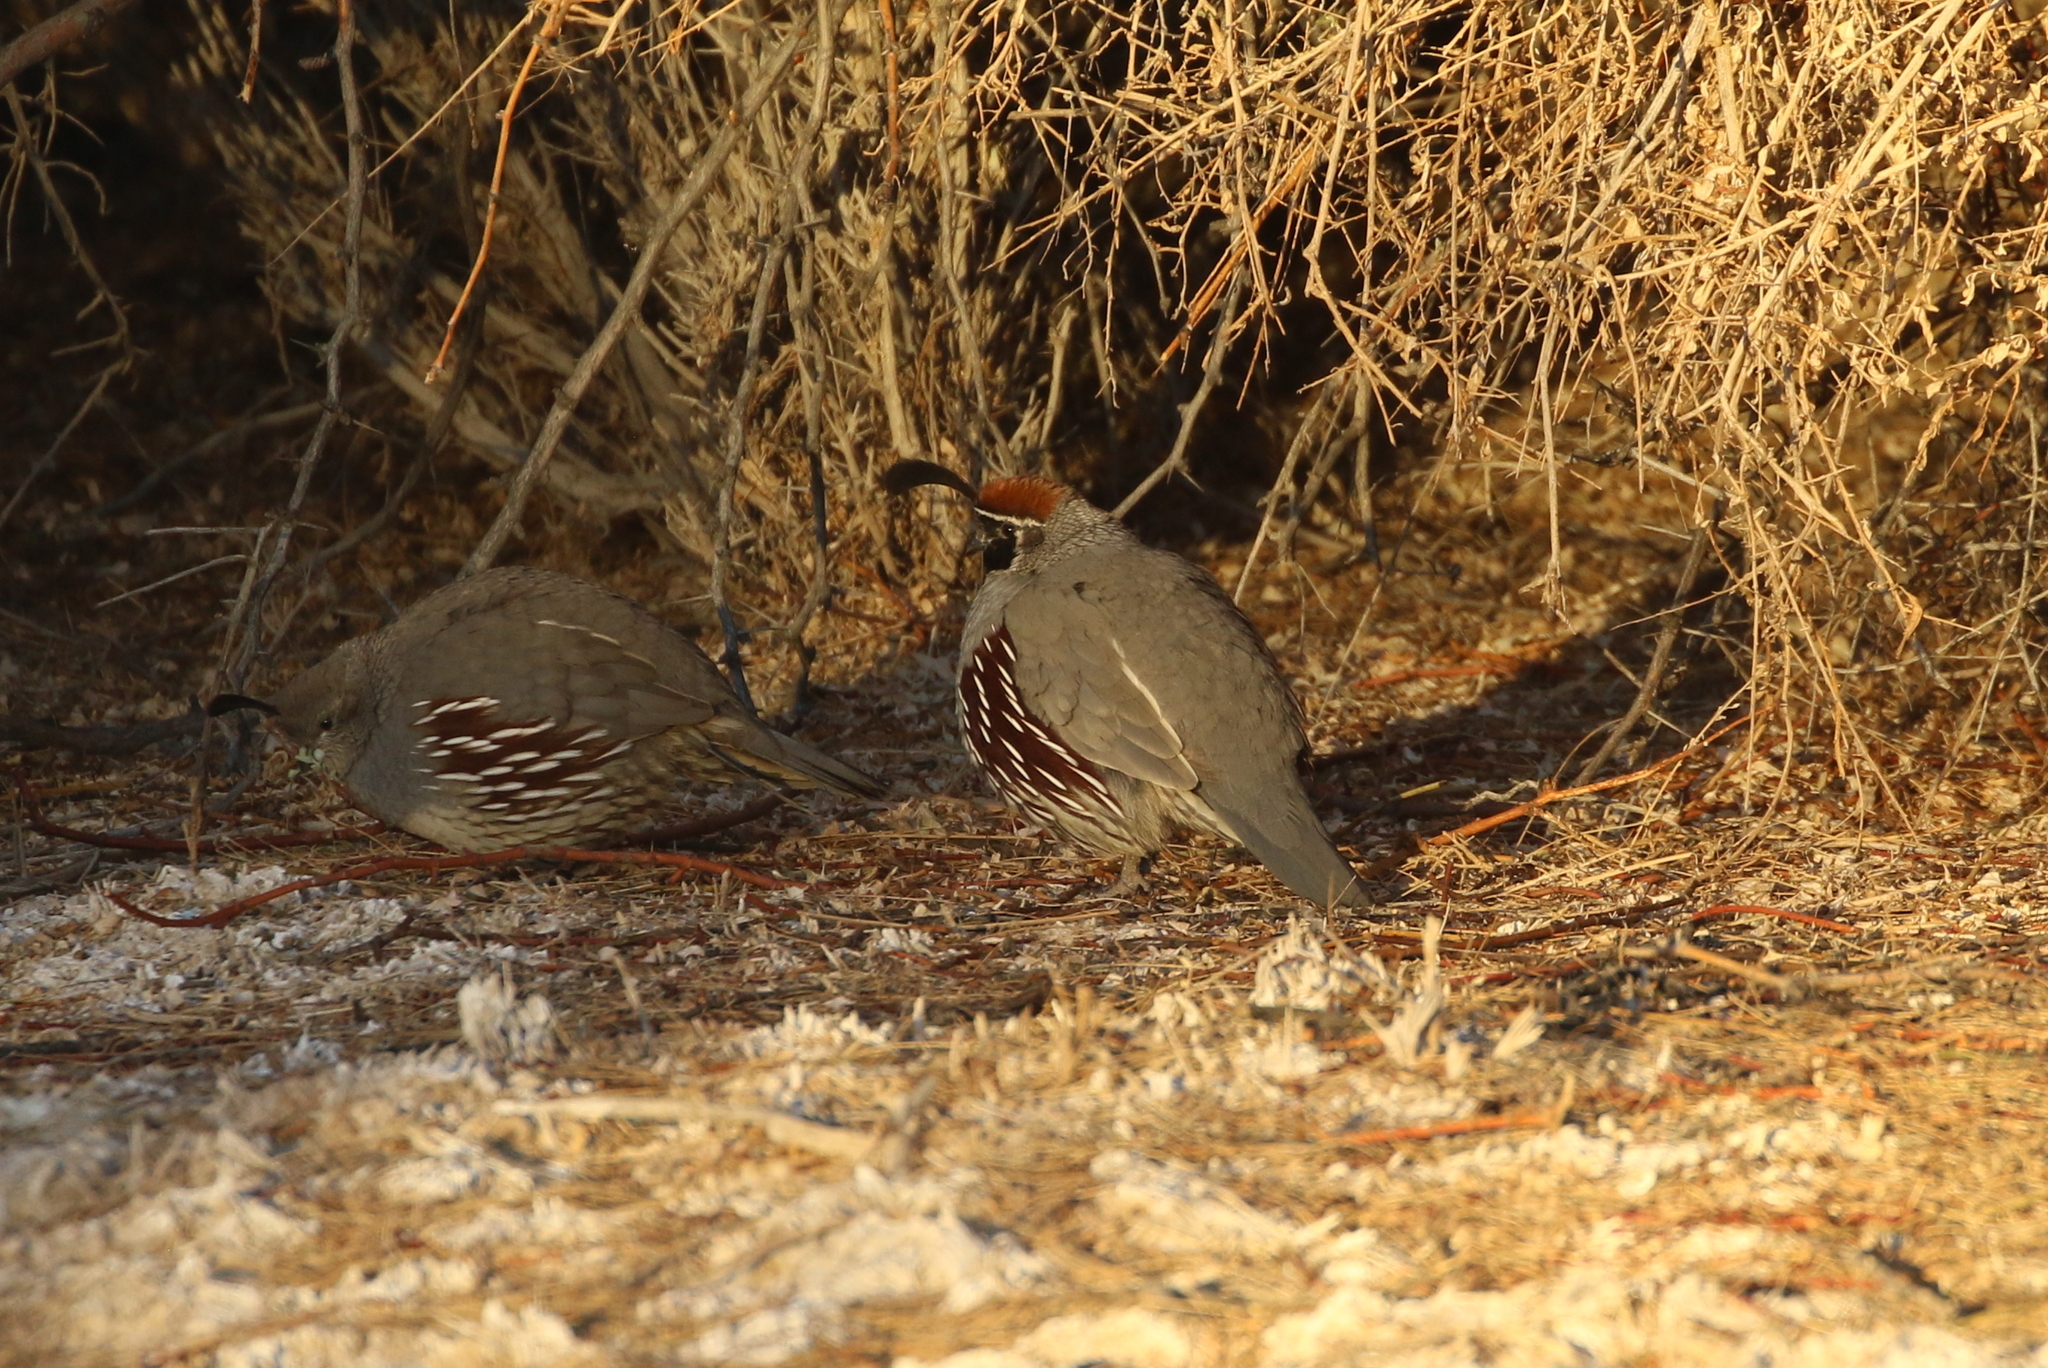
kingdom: Animalia
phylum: Chordata
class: Aves
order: Galliformes
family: Odontophoridae
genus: Callipepla
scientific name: Callipepla gambelii
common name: Gambel's quail
